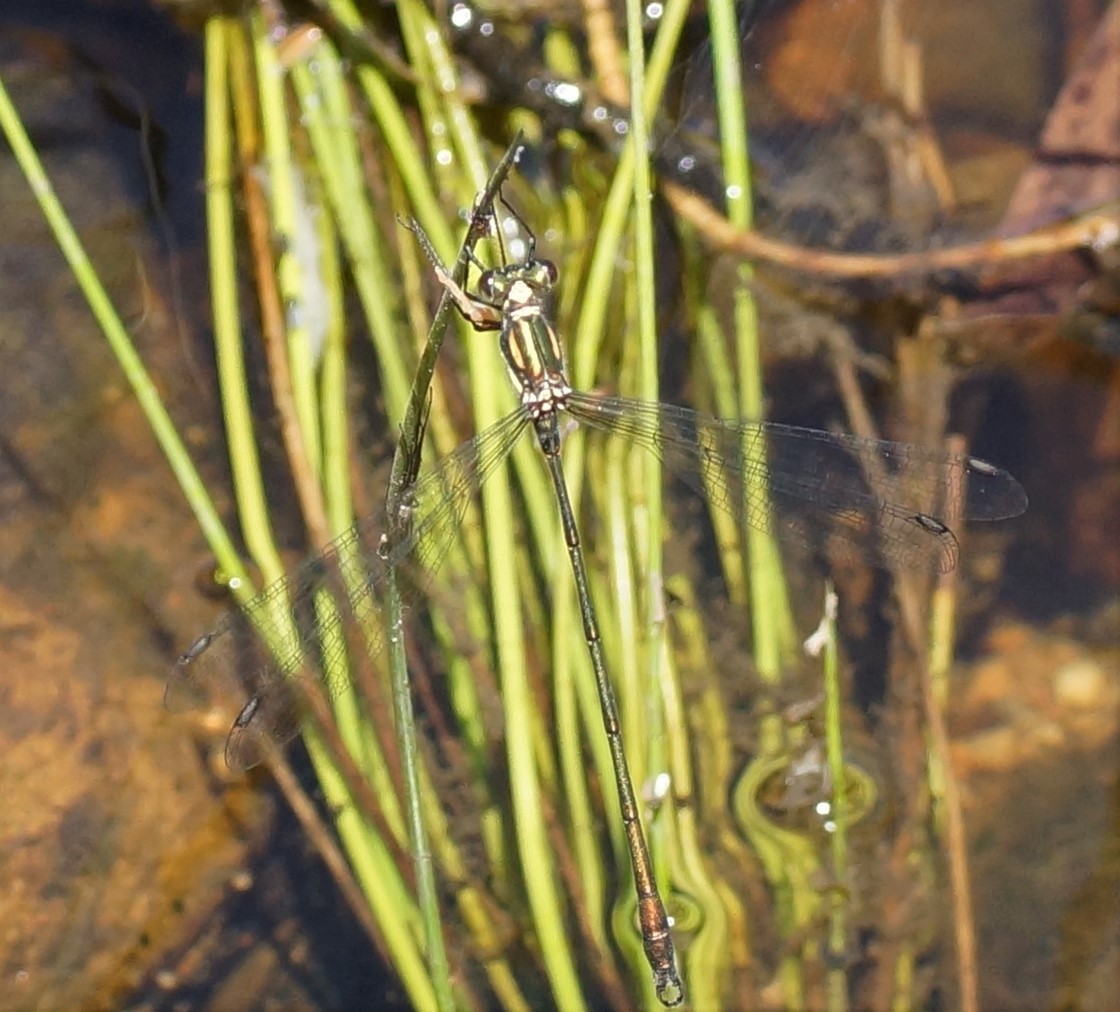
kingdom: Animalia
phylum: Arthropoda
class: Insecta
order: Odonata
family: Synlestidae
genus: Synlestes
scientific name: Synlestes weyersii
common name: Bronze needle
